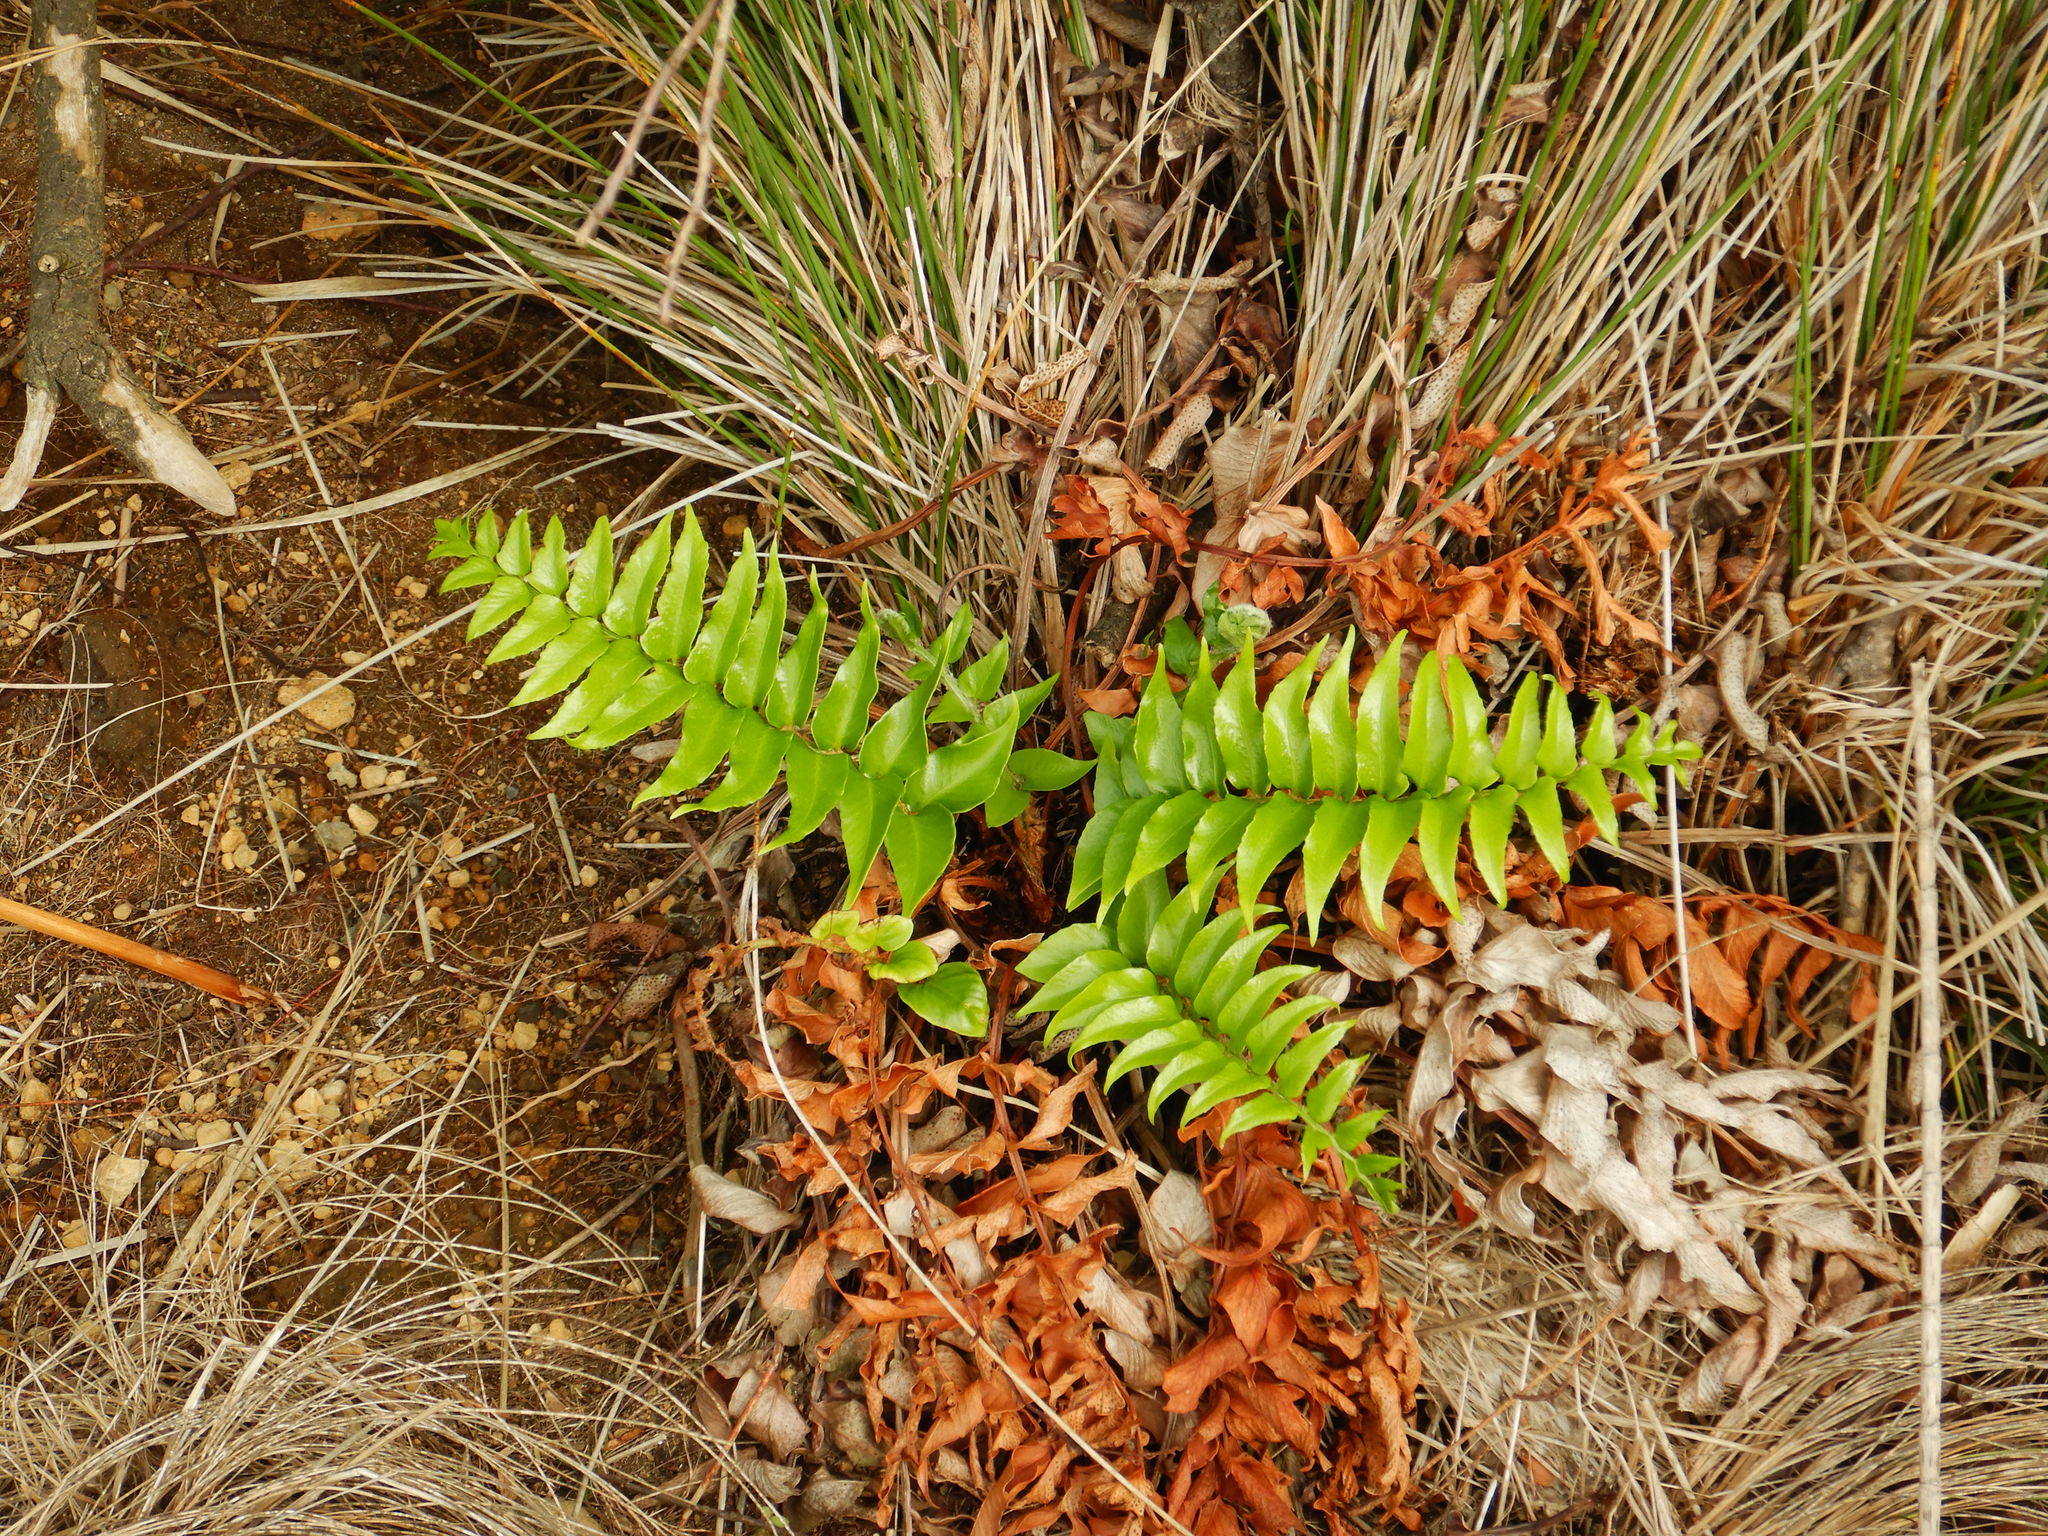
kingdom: Plantae
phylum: Tracheophyta
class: Polypodiopsida
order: Polypodiales
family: Dryopteridaceae
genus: Cyrtomium
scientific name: Cyrtomium falcatum
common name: House holly-fern
